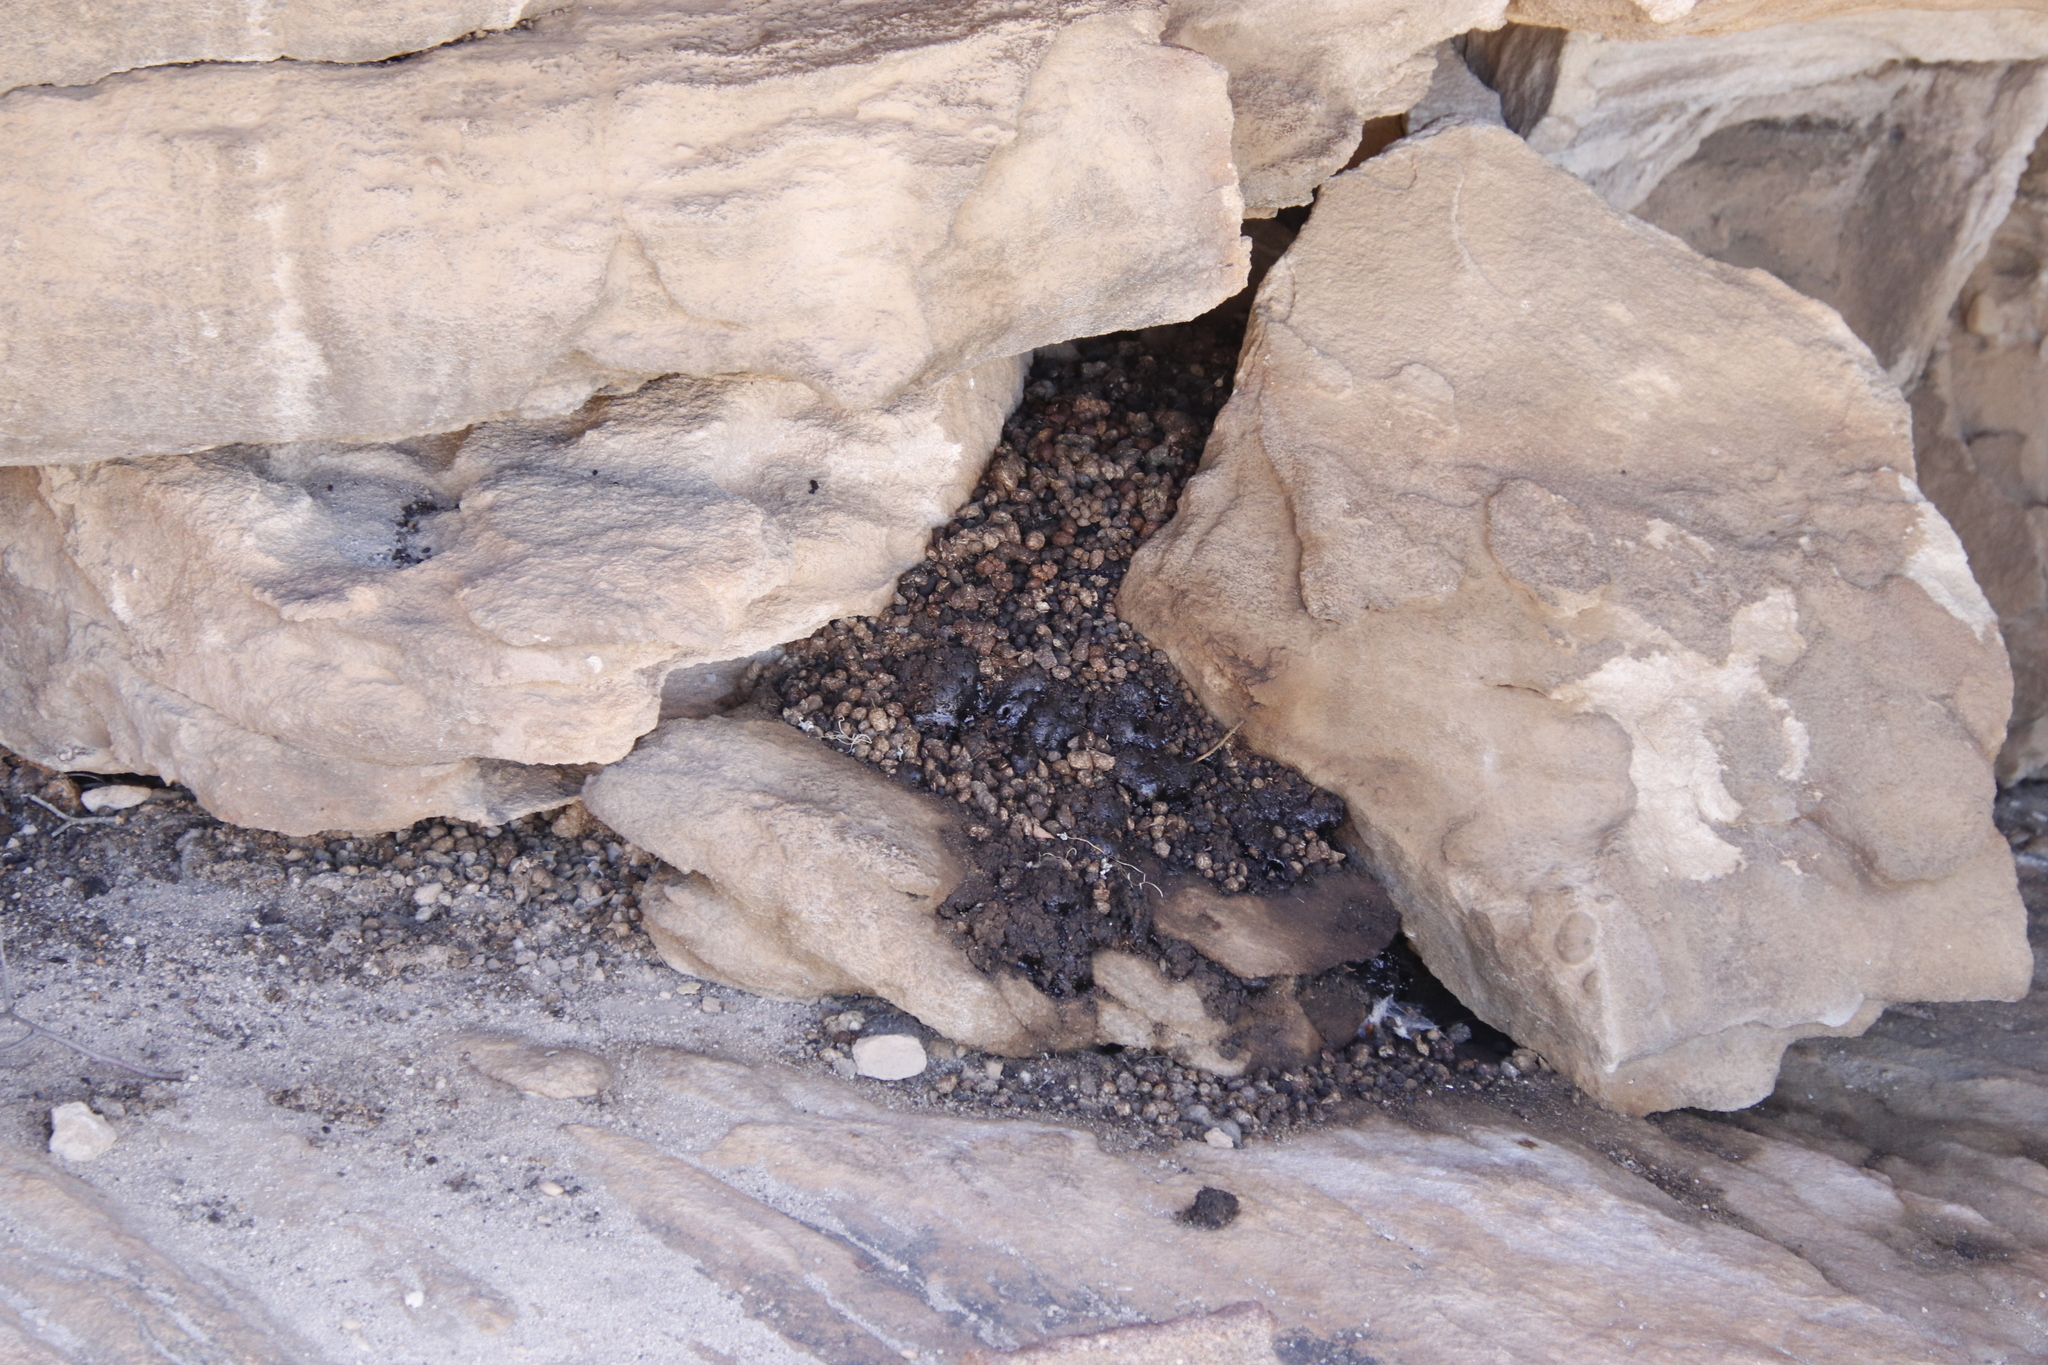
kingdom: Animalia
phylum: Chordata
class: Mammalia
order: Hyracoidea
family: Procaviidae
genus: Procavia
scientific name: Procavia capensis
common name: Rock hyrax
